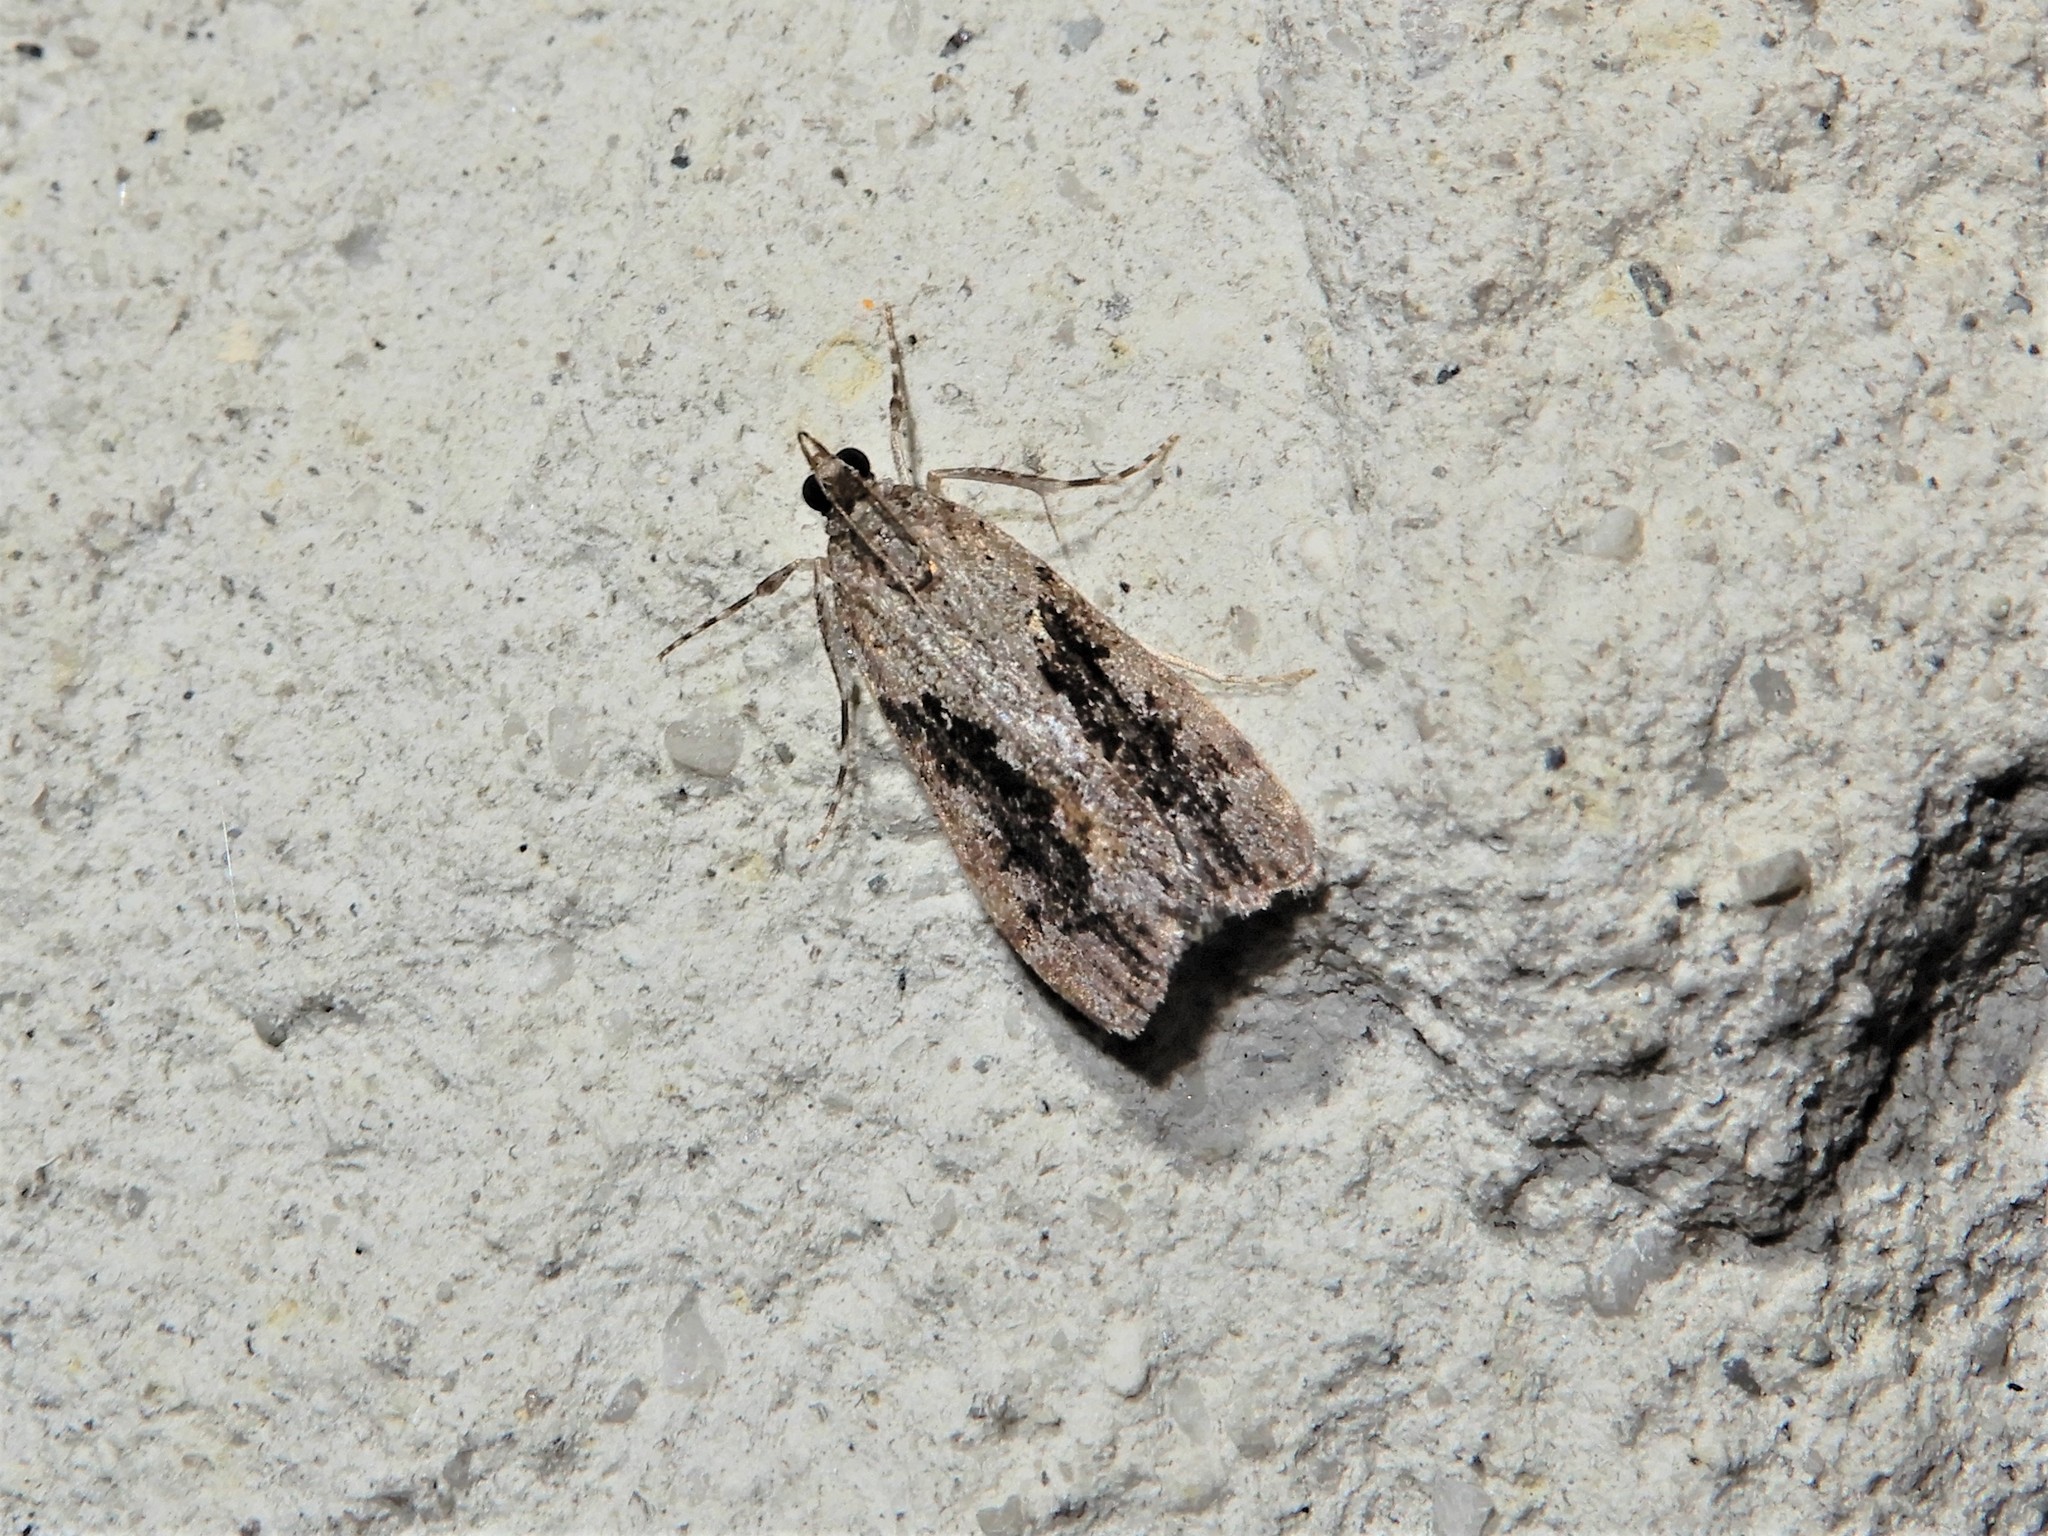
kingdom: Animalia
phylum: Arthropoda
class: Insecta
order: Lepidoptera
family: Crambidae
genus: Eudonia
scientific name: Eudonia submarginalis
